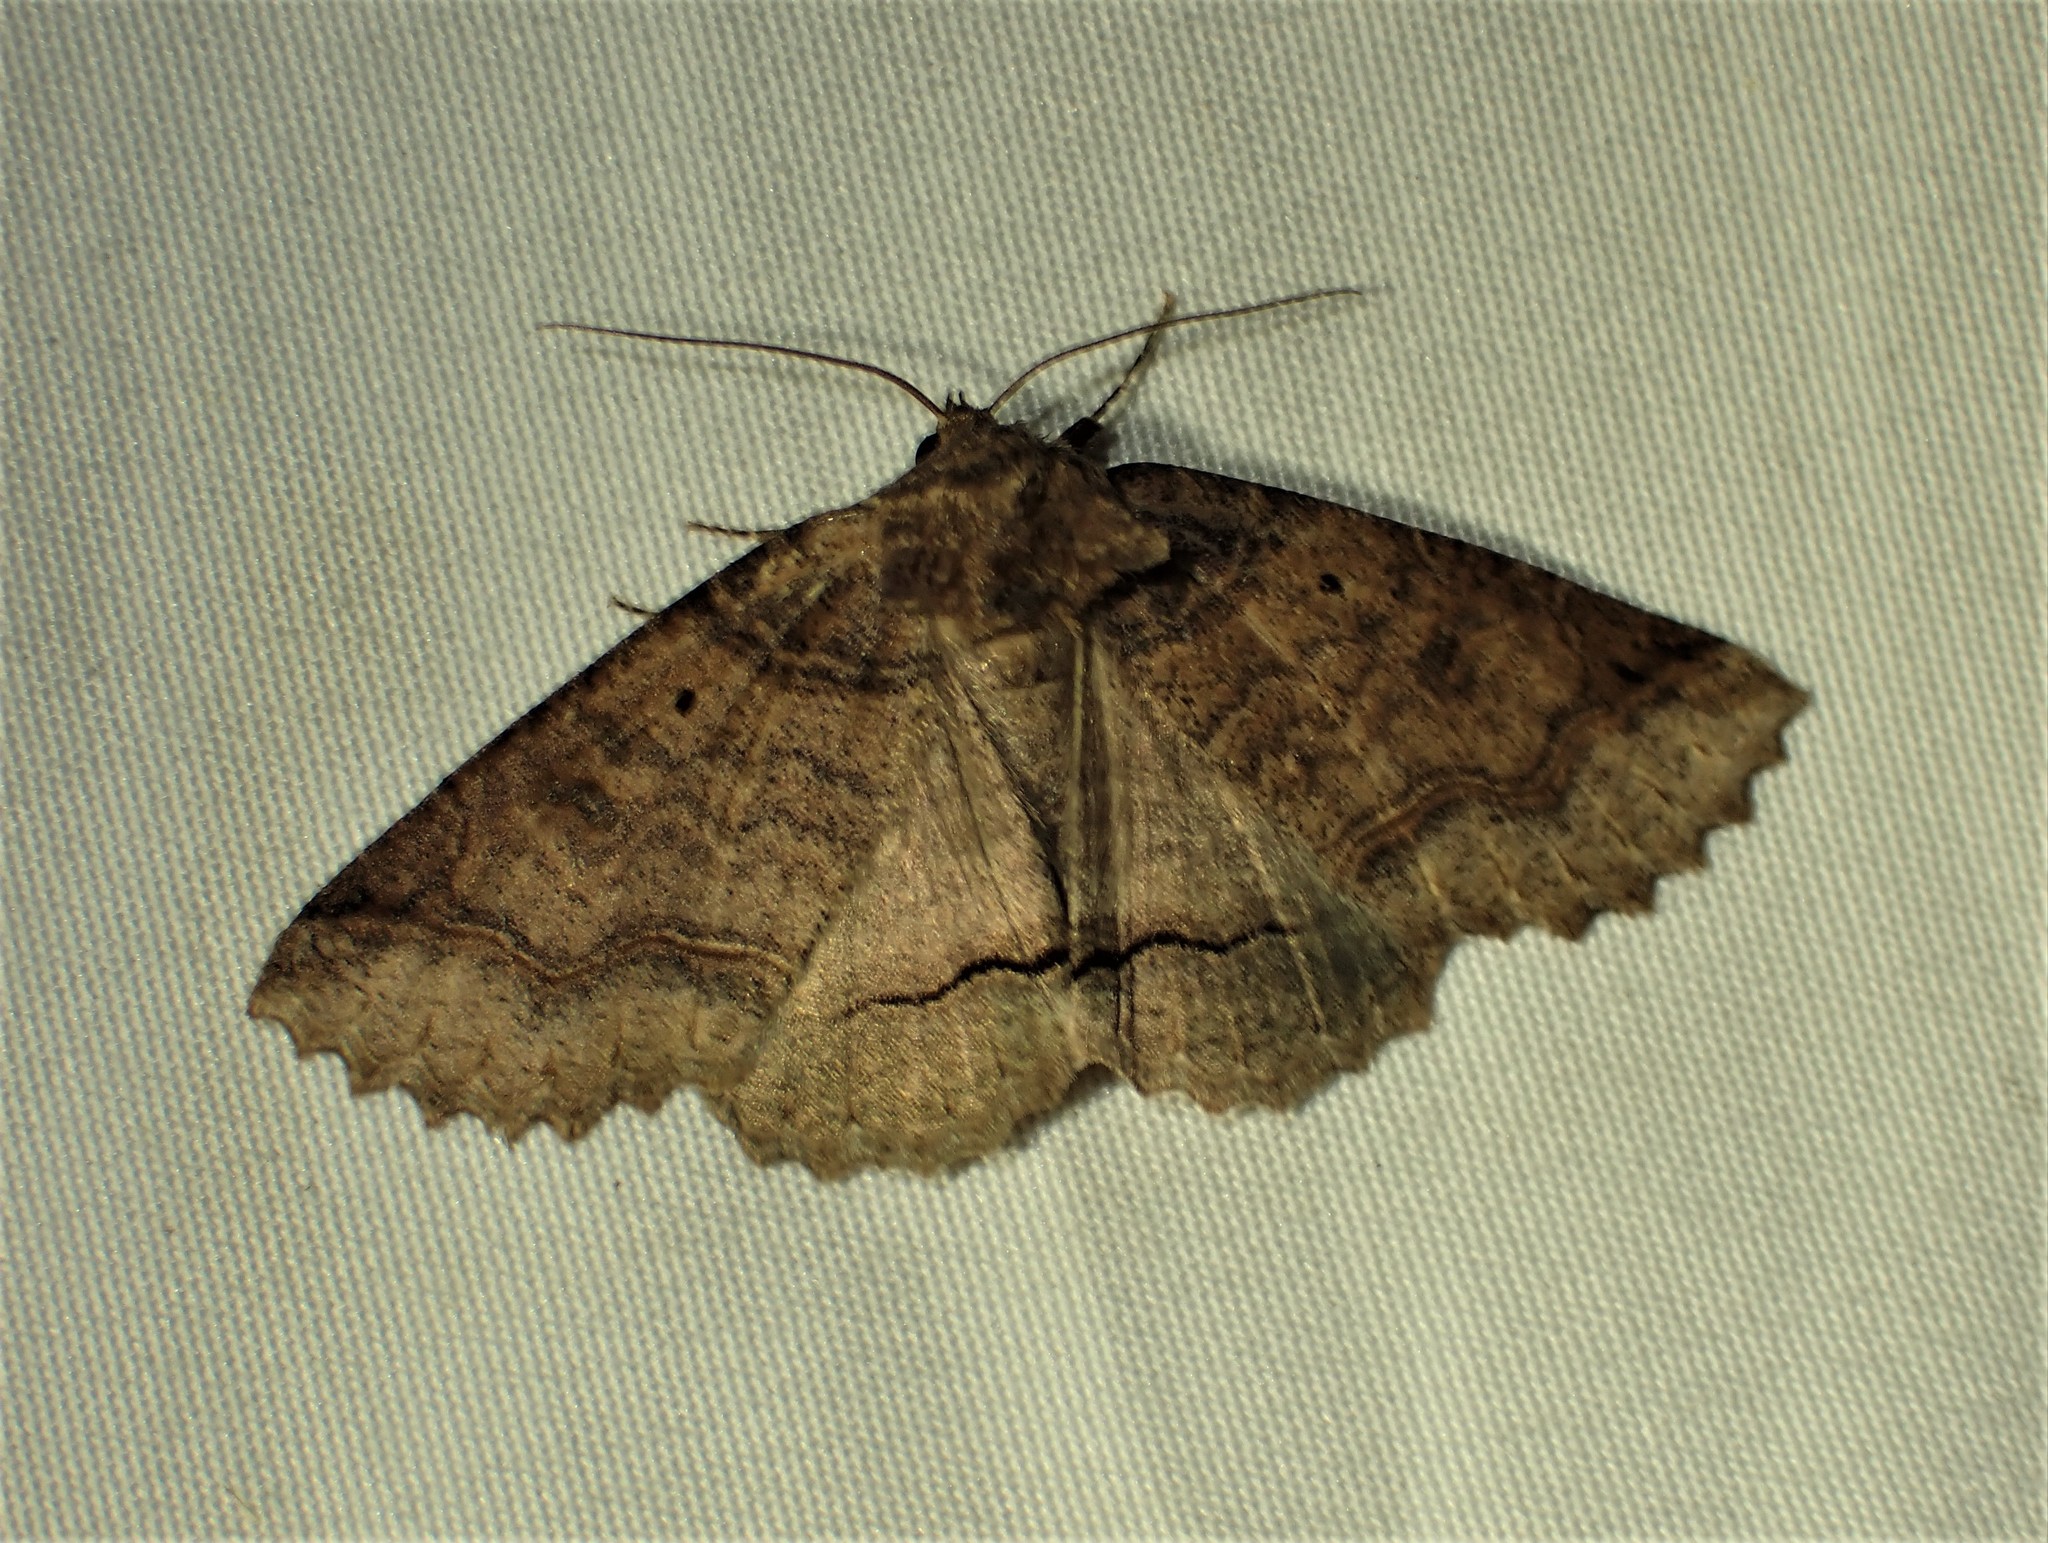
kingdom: Animalia
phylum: Arthropoda
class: Insecta
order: Lepidoptera
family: Erebidae
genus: Zale
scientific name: Zale unilineata
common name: One-lined zale moth
